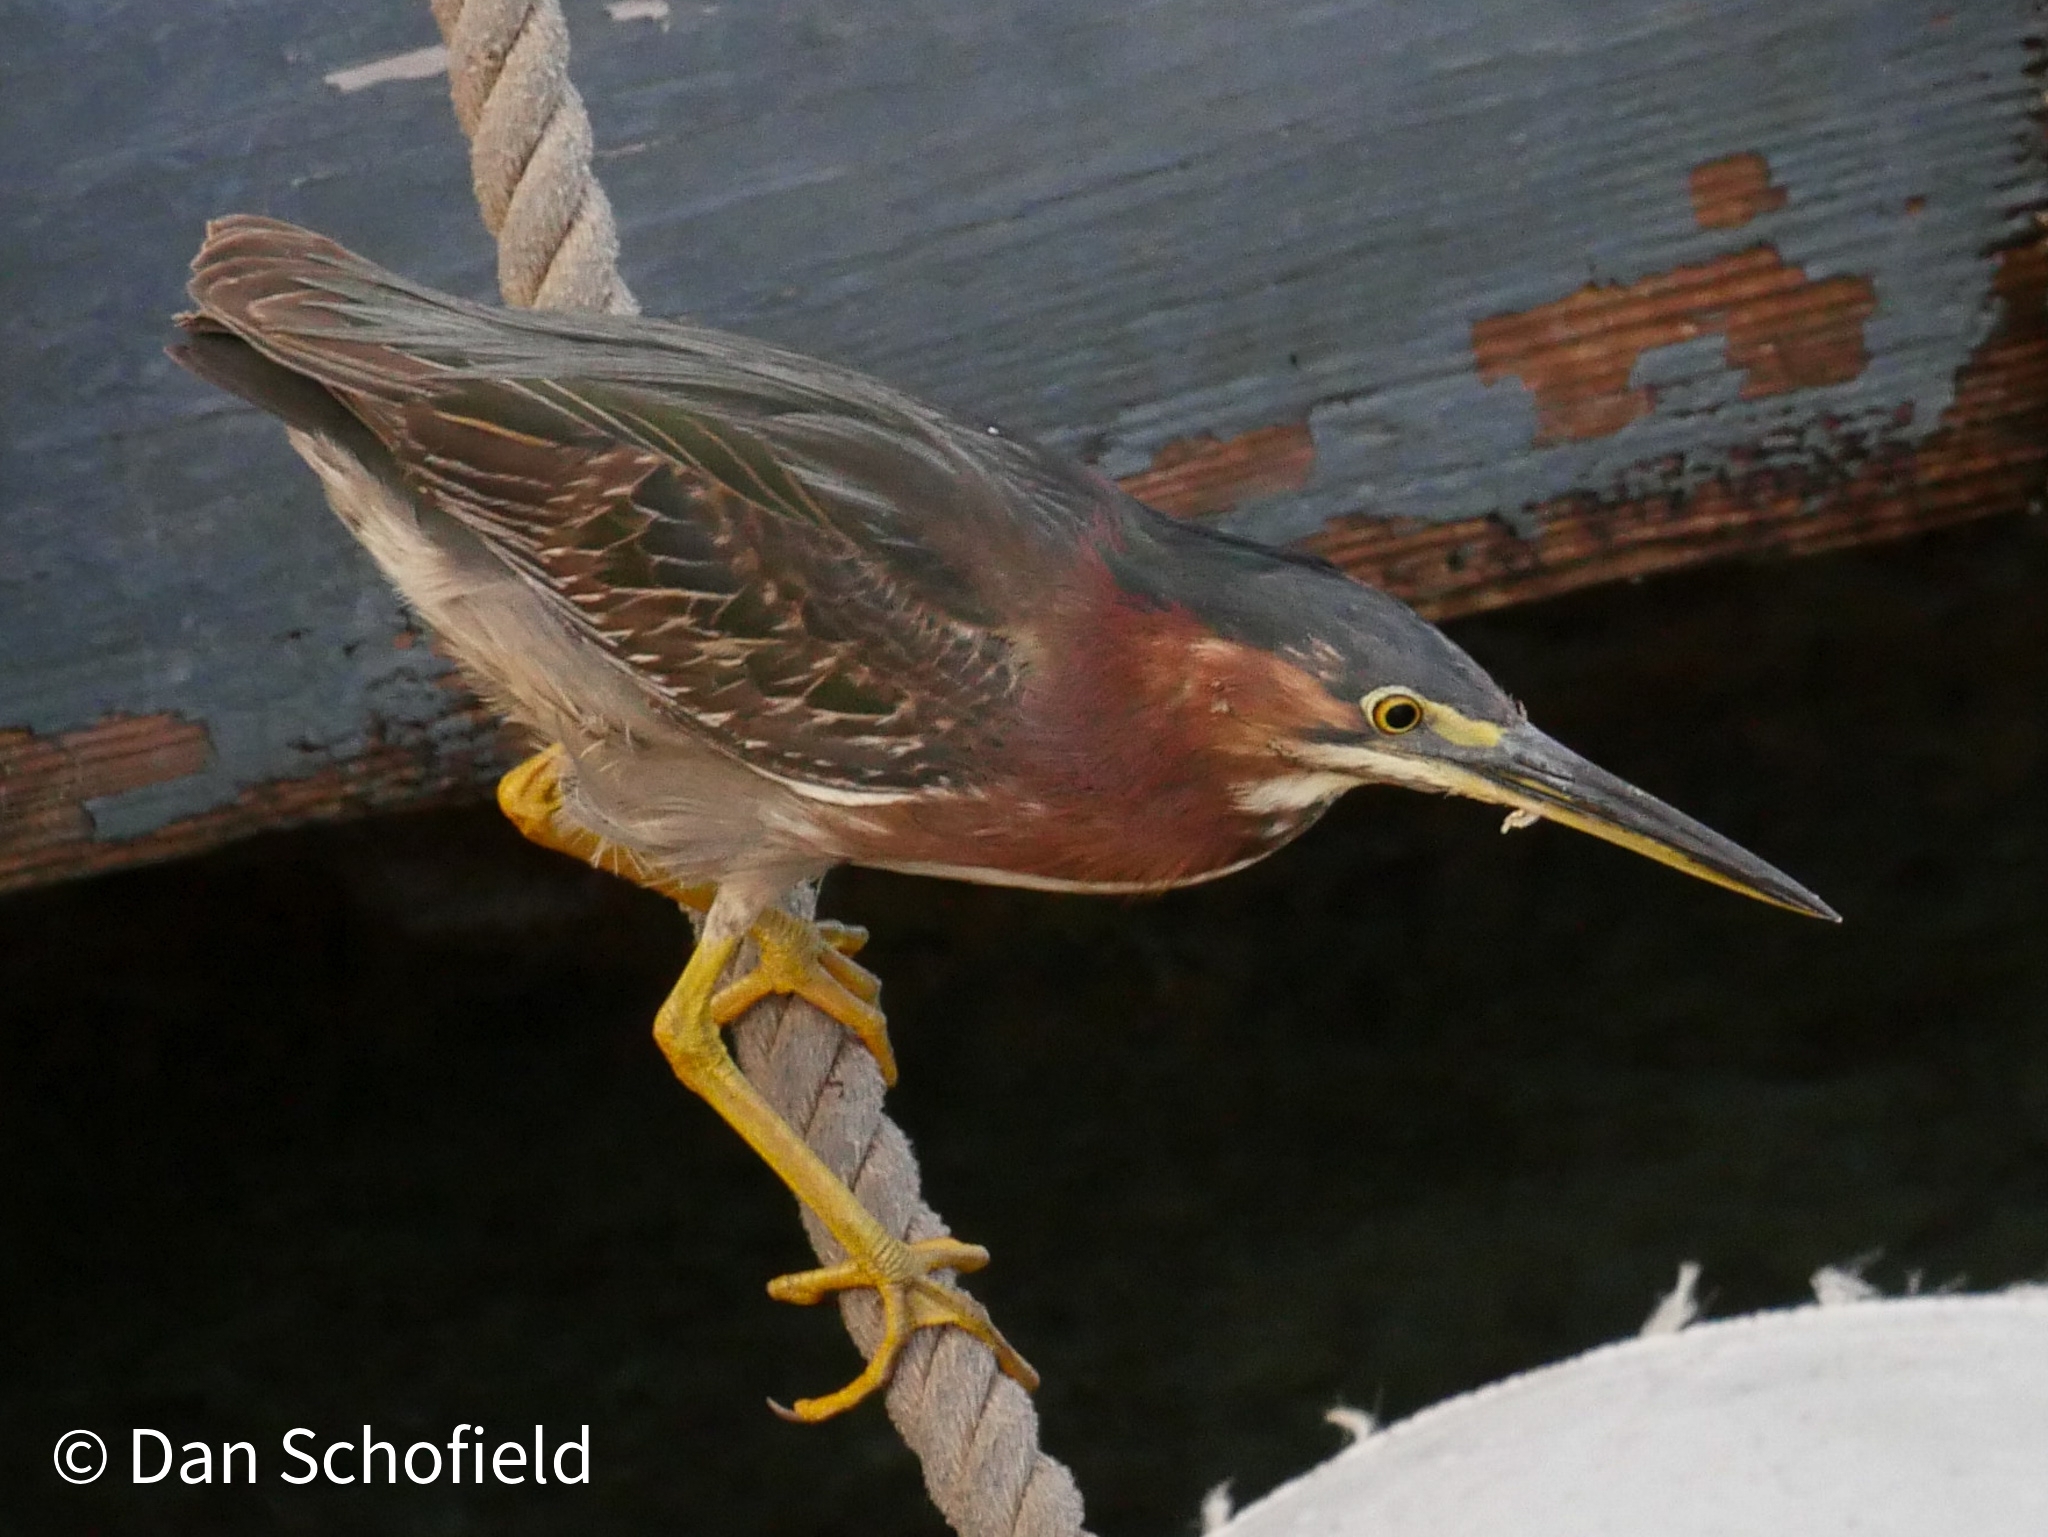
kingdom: Animalia
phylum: Chordata
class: Aves
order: Pelecaniformes
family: Ardeidae
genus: Butorides
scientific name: Butorides virescens
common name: Green heron
